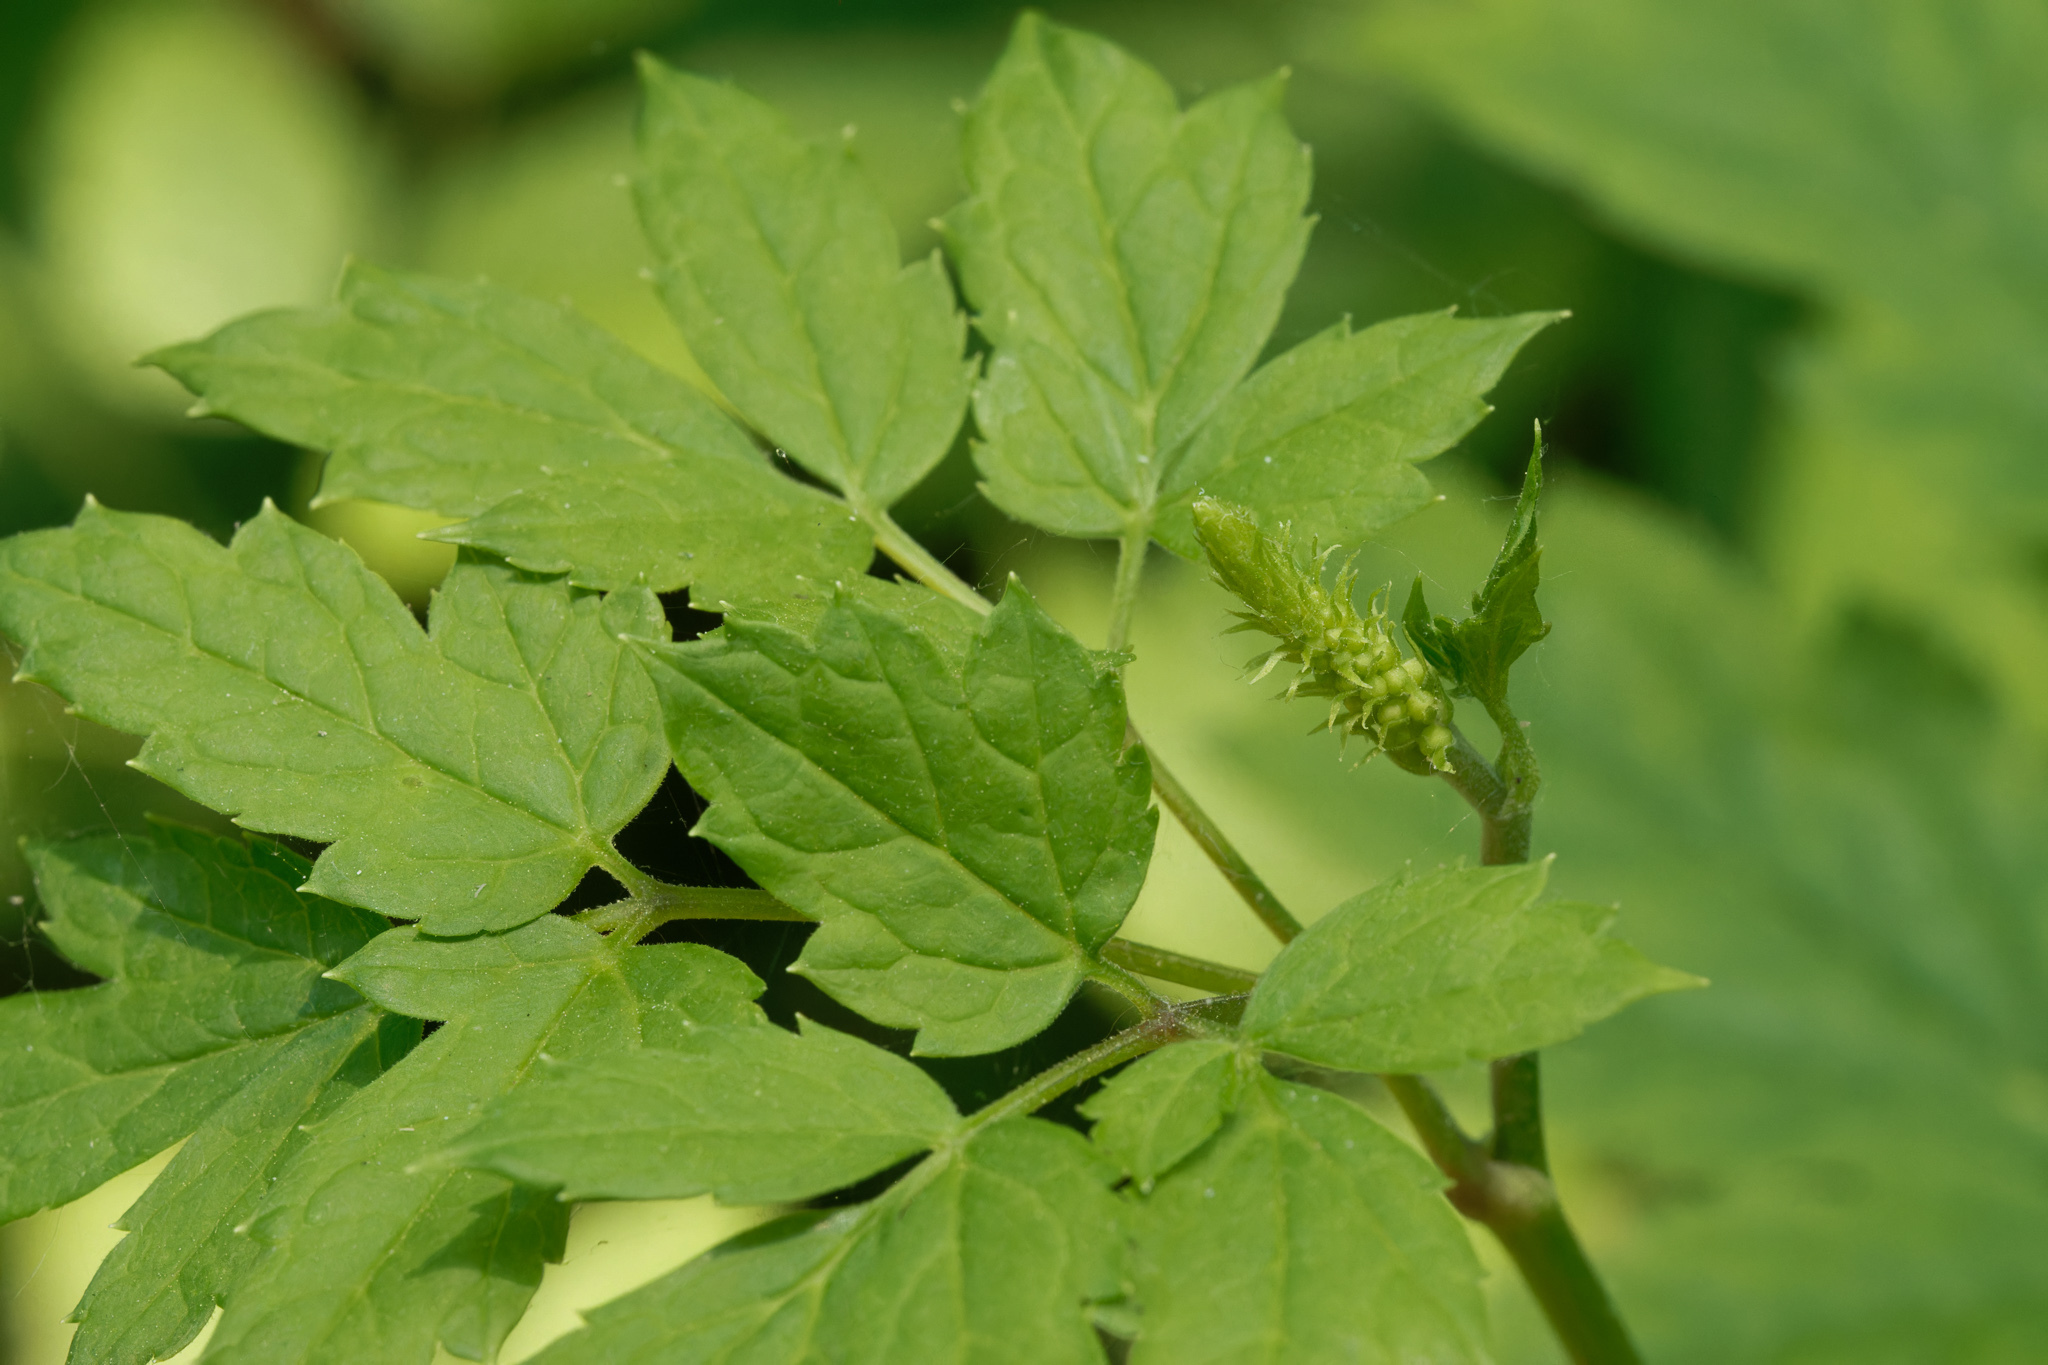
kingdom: Plantae
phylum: Tracheophyta
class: Magnoliopsida
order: Ranunculales
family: Ranunculaceae
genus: Actaea
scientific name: Actaea racemosa
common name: Black cohosh
